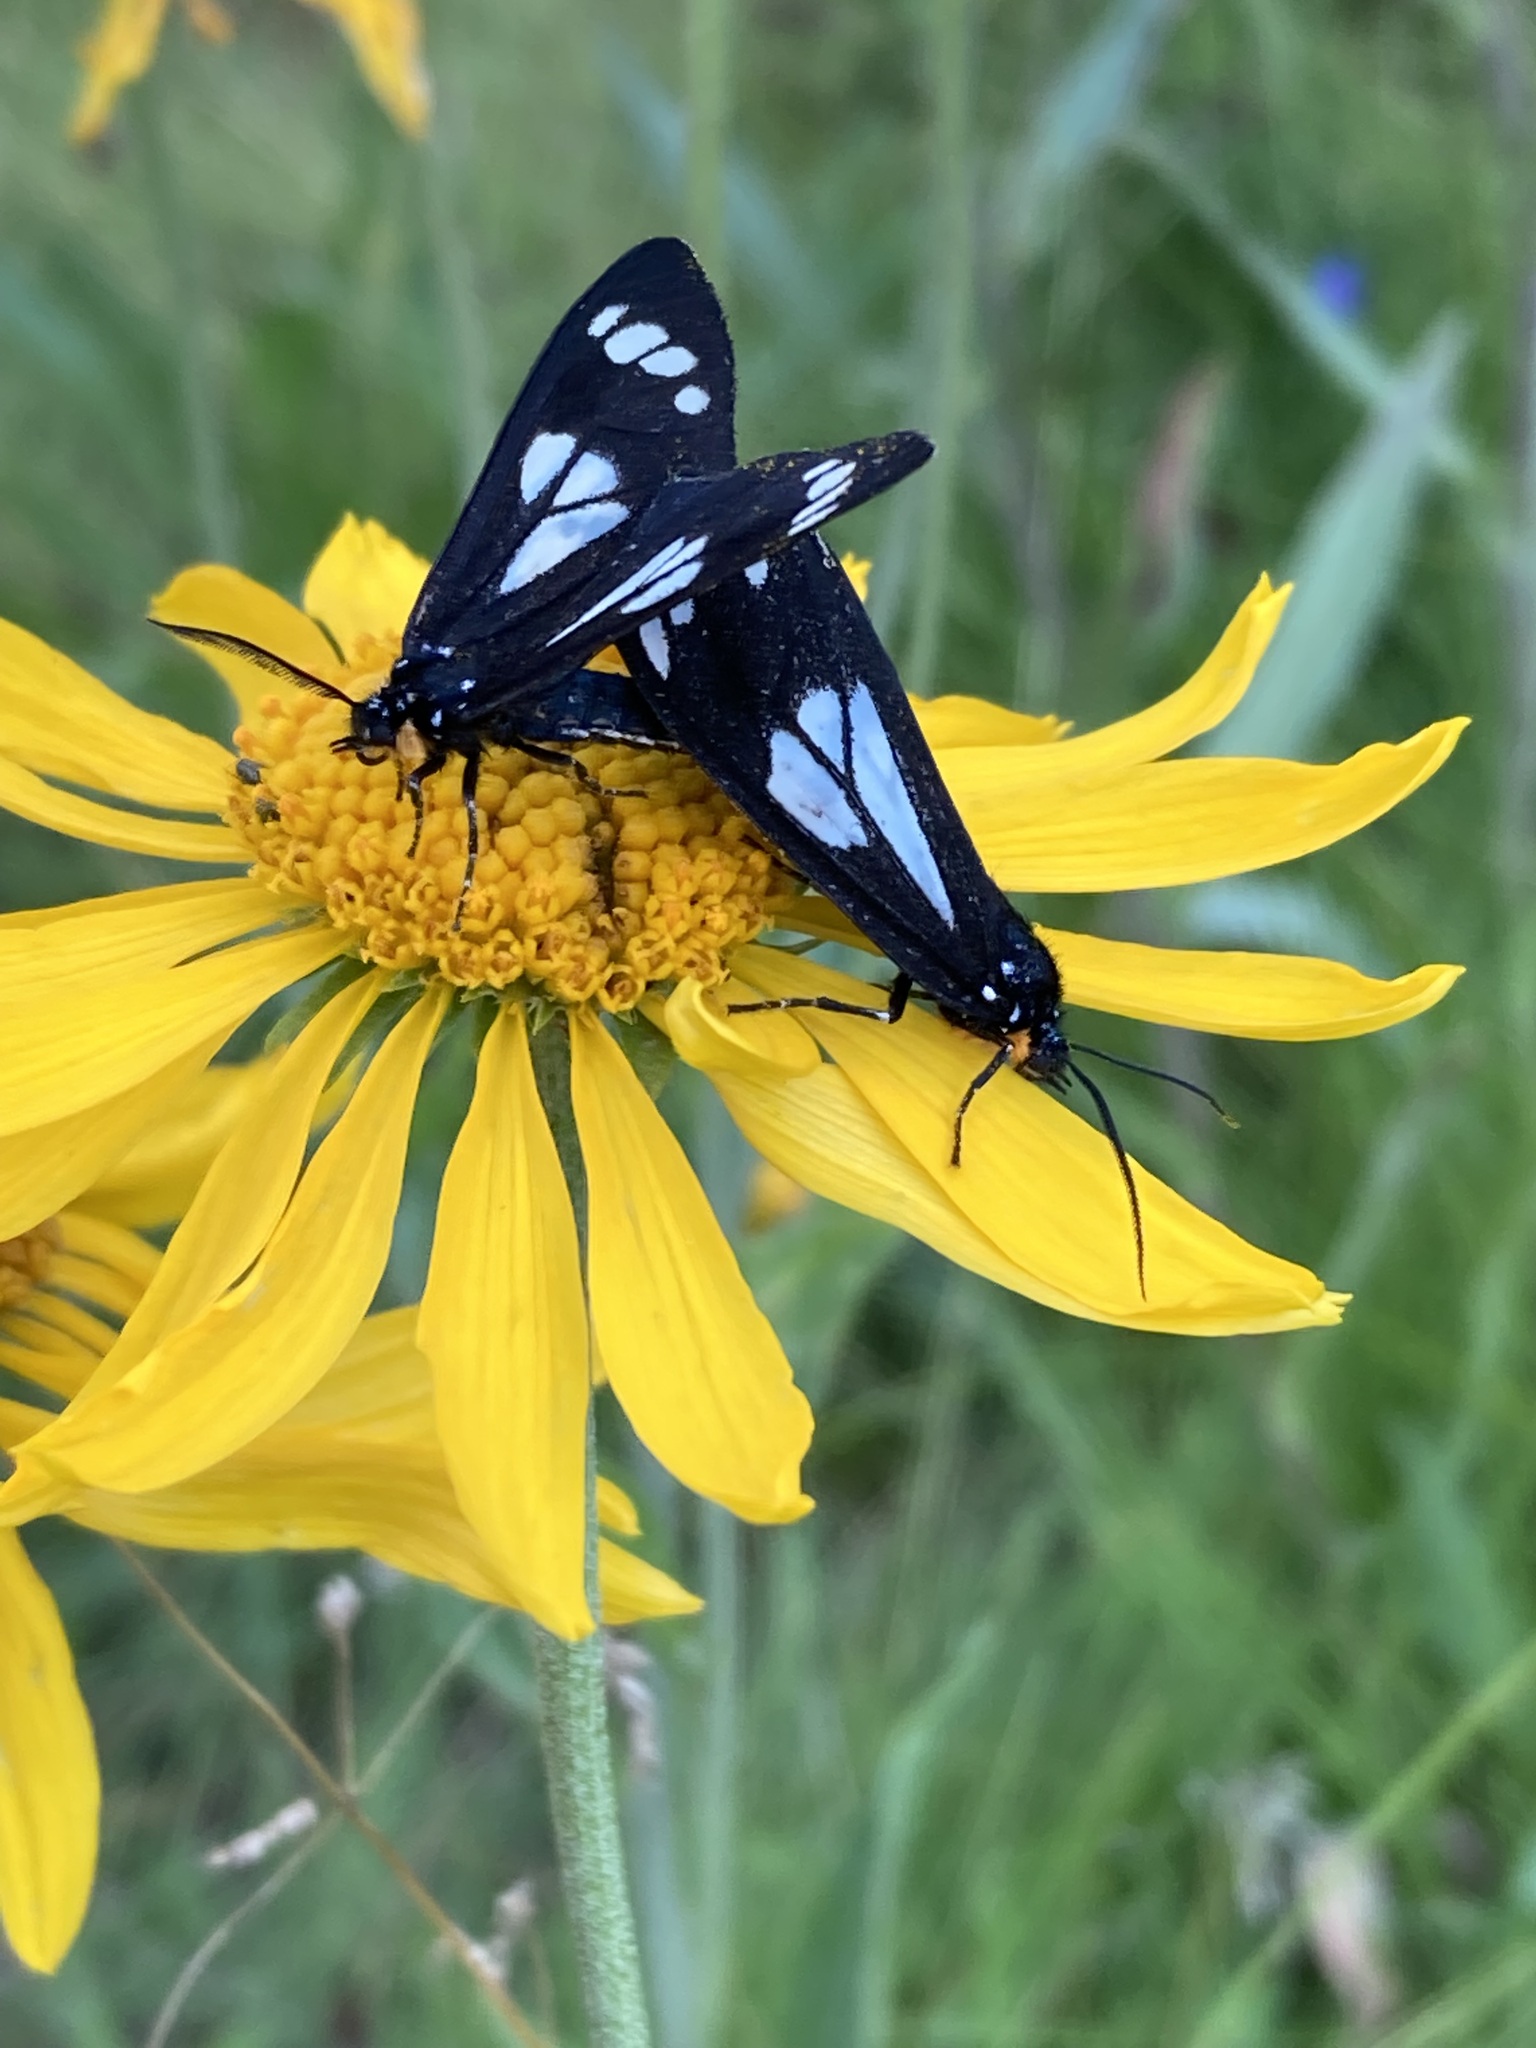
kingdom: Animalia
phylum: Arthropoda
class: Insecta
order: Lepidoptera
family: Erebidae
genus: Gnophaela
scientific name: Gnophaela discreta
